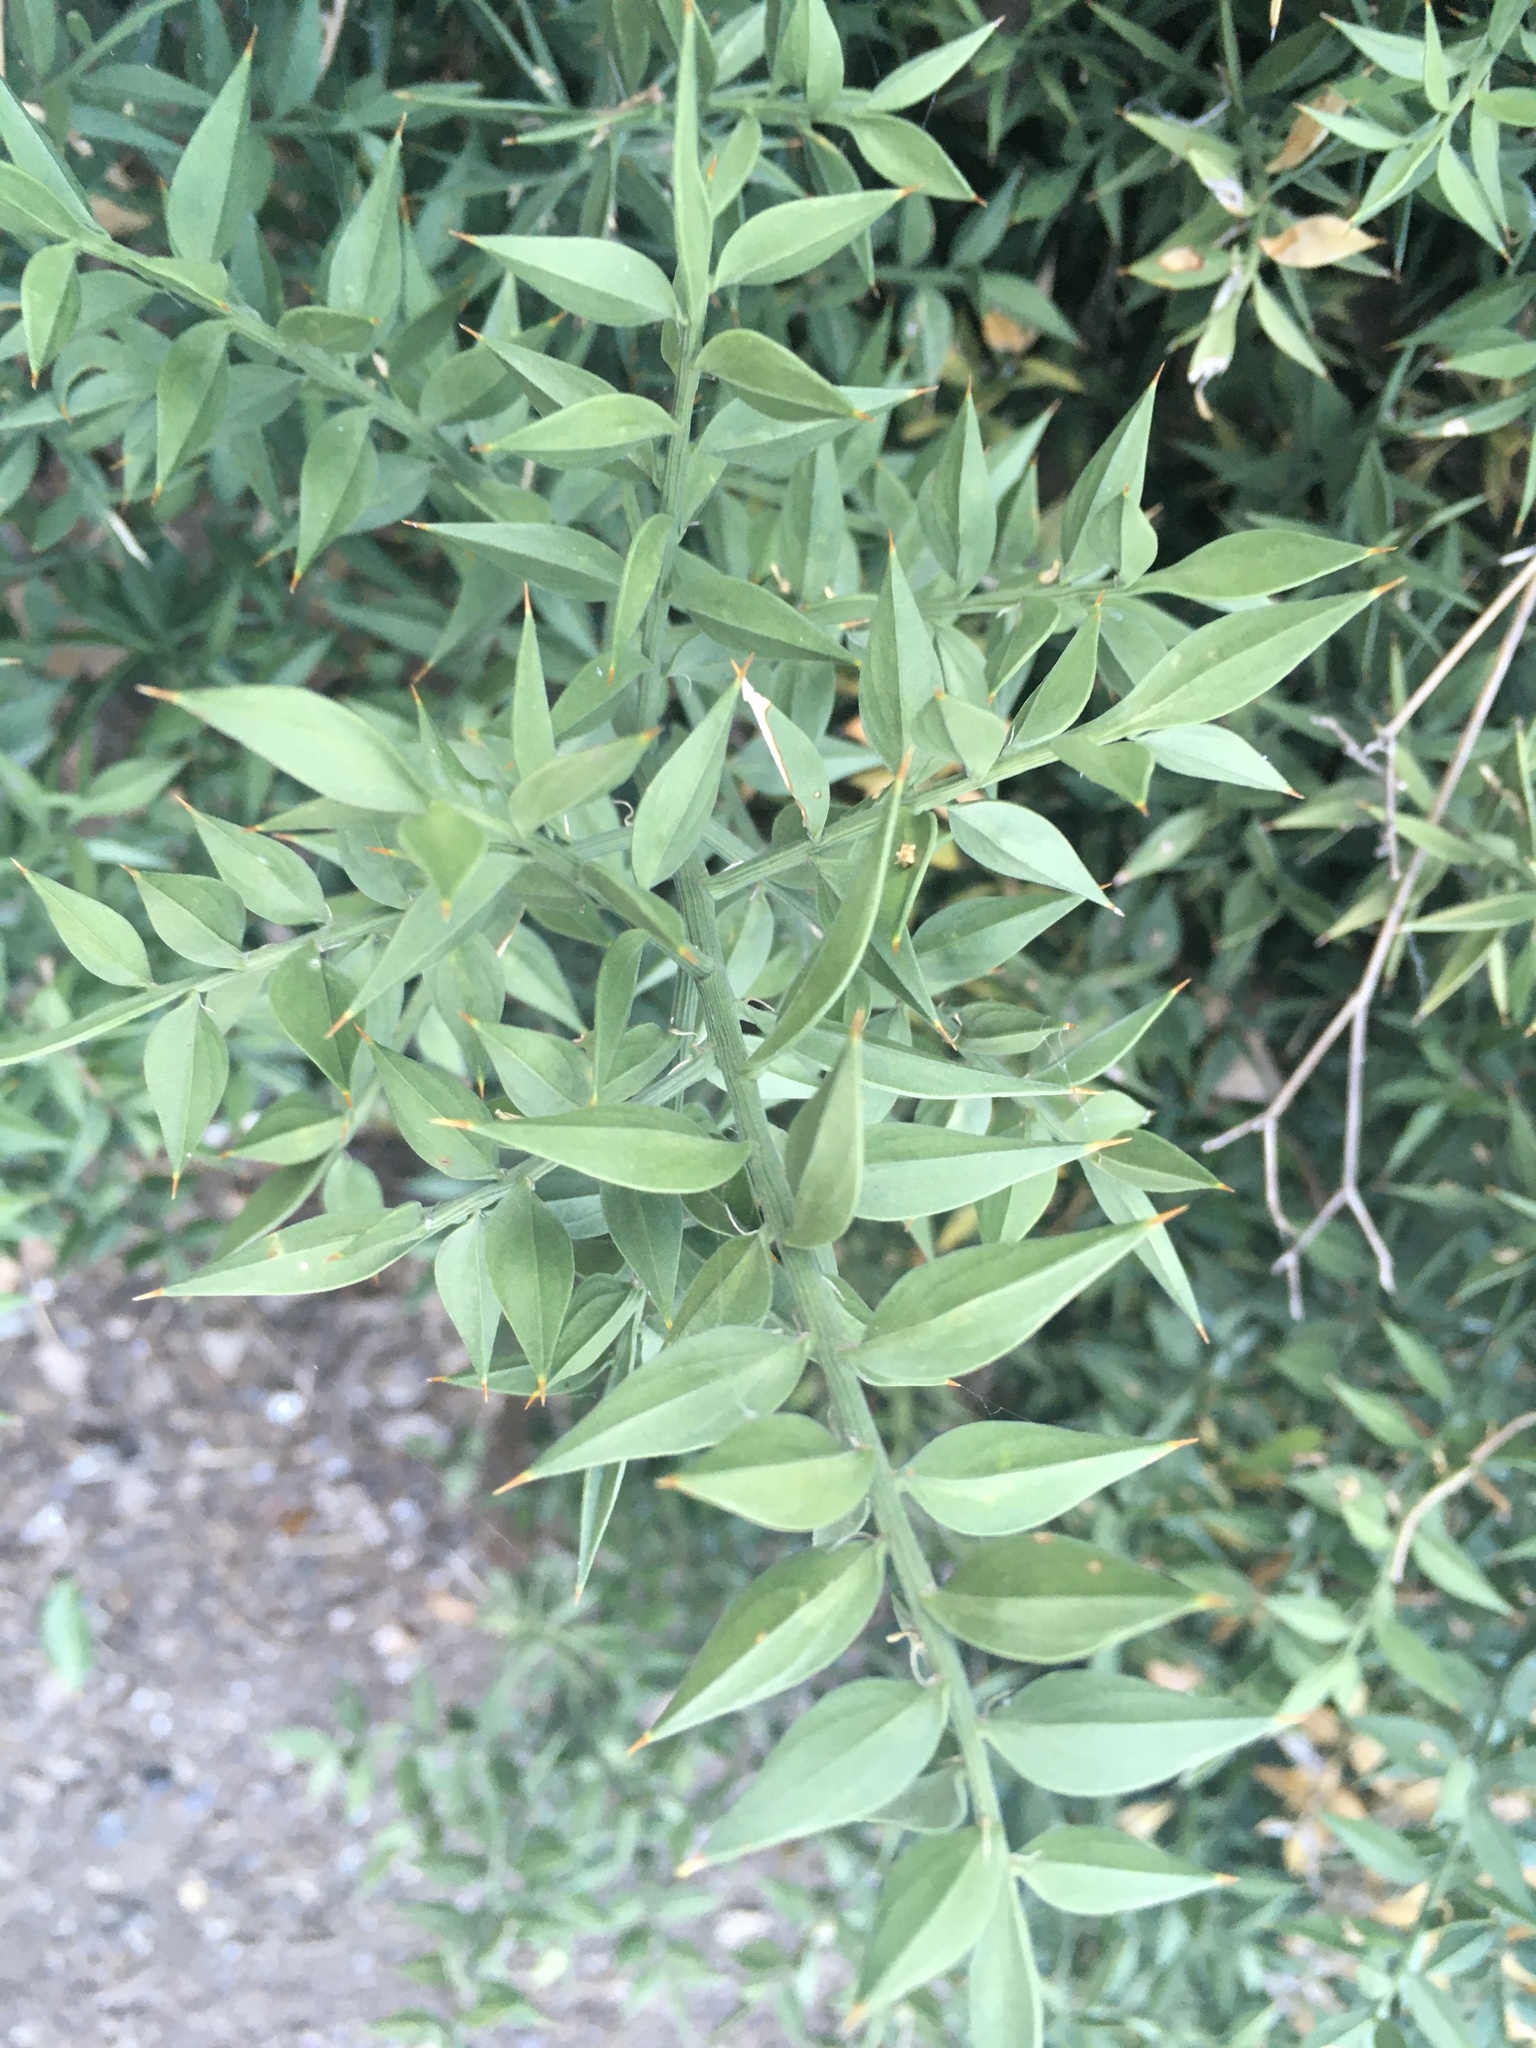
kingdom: Plantae
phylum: Tracheophyta
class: Liliopsida
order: Asparagales
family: Asparagaceae
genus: Ruscus
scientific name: Ruscus aculeatus
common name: Butcher's-broom
